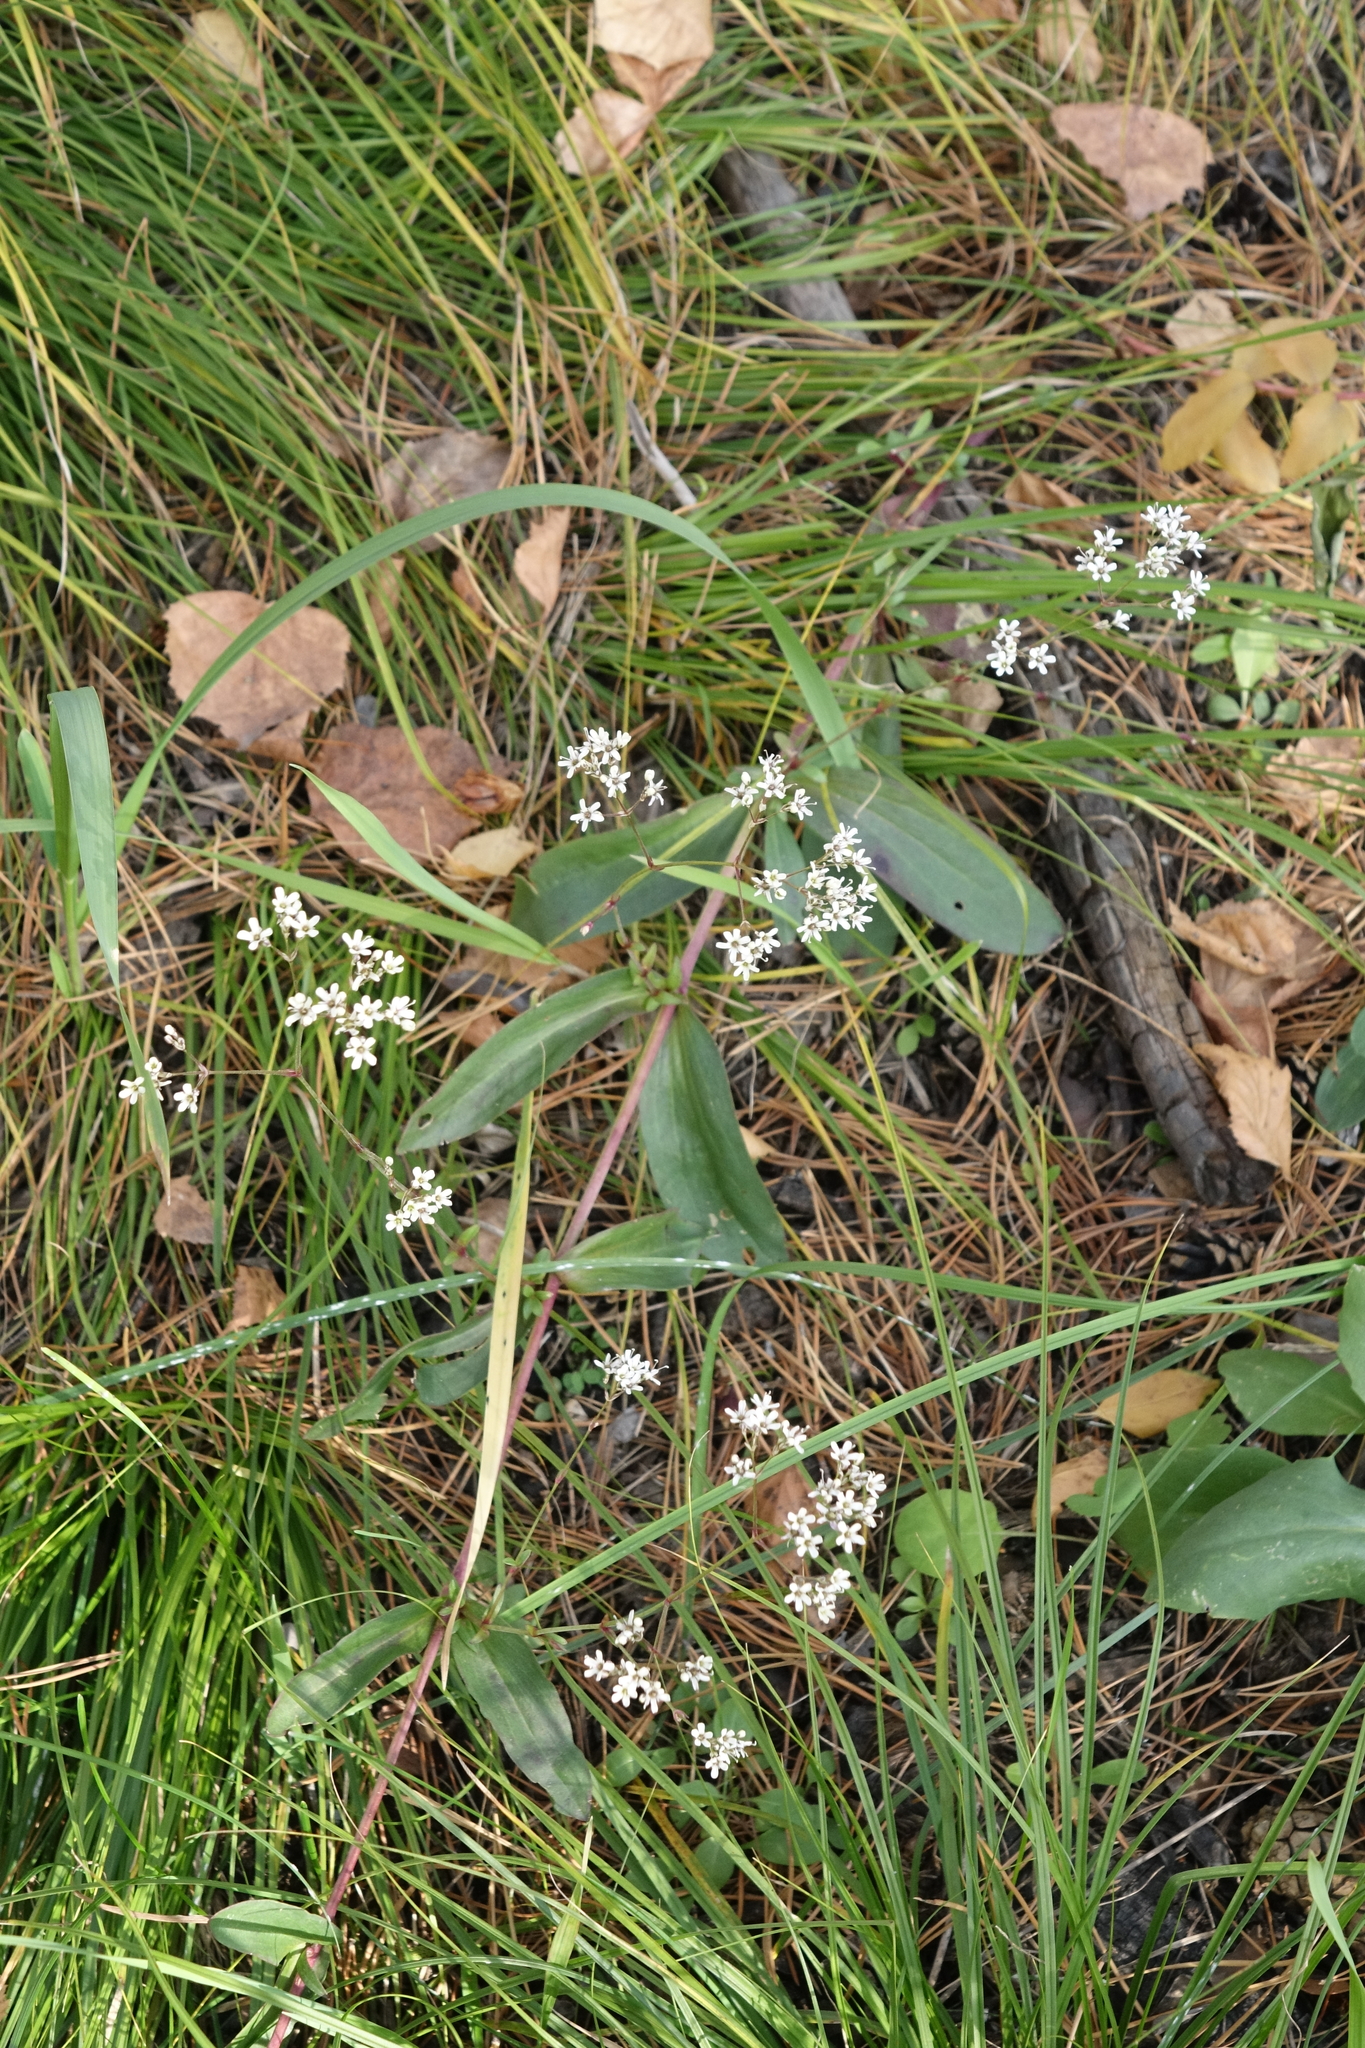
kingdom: Plantae
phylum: Tracheophyta
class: Magnoliopsida
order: Caryophyllales
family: Caryophyllaceae
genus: Gypsophila
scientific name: Gypsophila altissima
